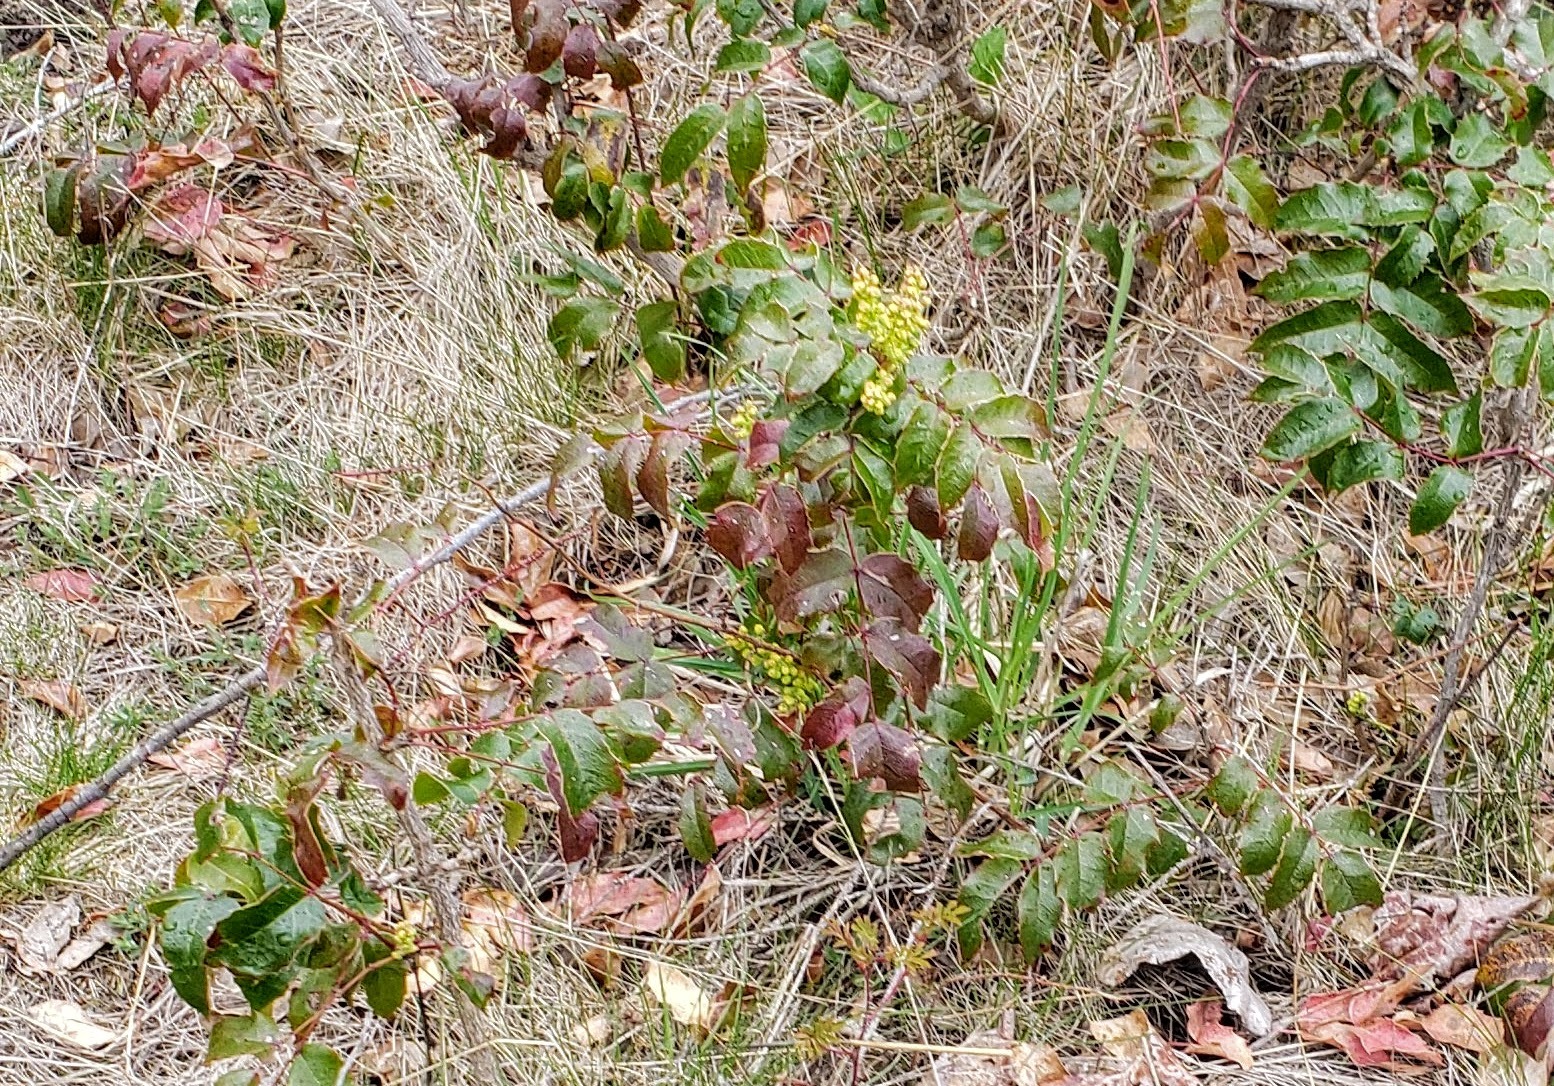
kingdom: Plantae
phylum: Tracheophyta
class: Magnoliopsida
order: Ranunculales
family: Berberidaceae
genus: Mahonia
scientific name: Mahonia aquifolium
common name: Oregon-grape
